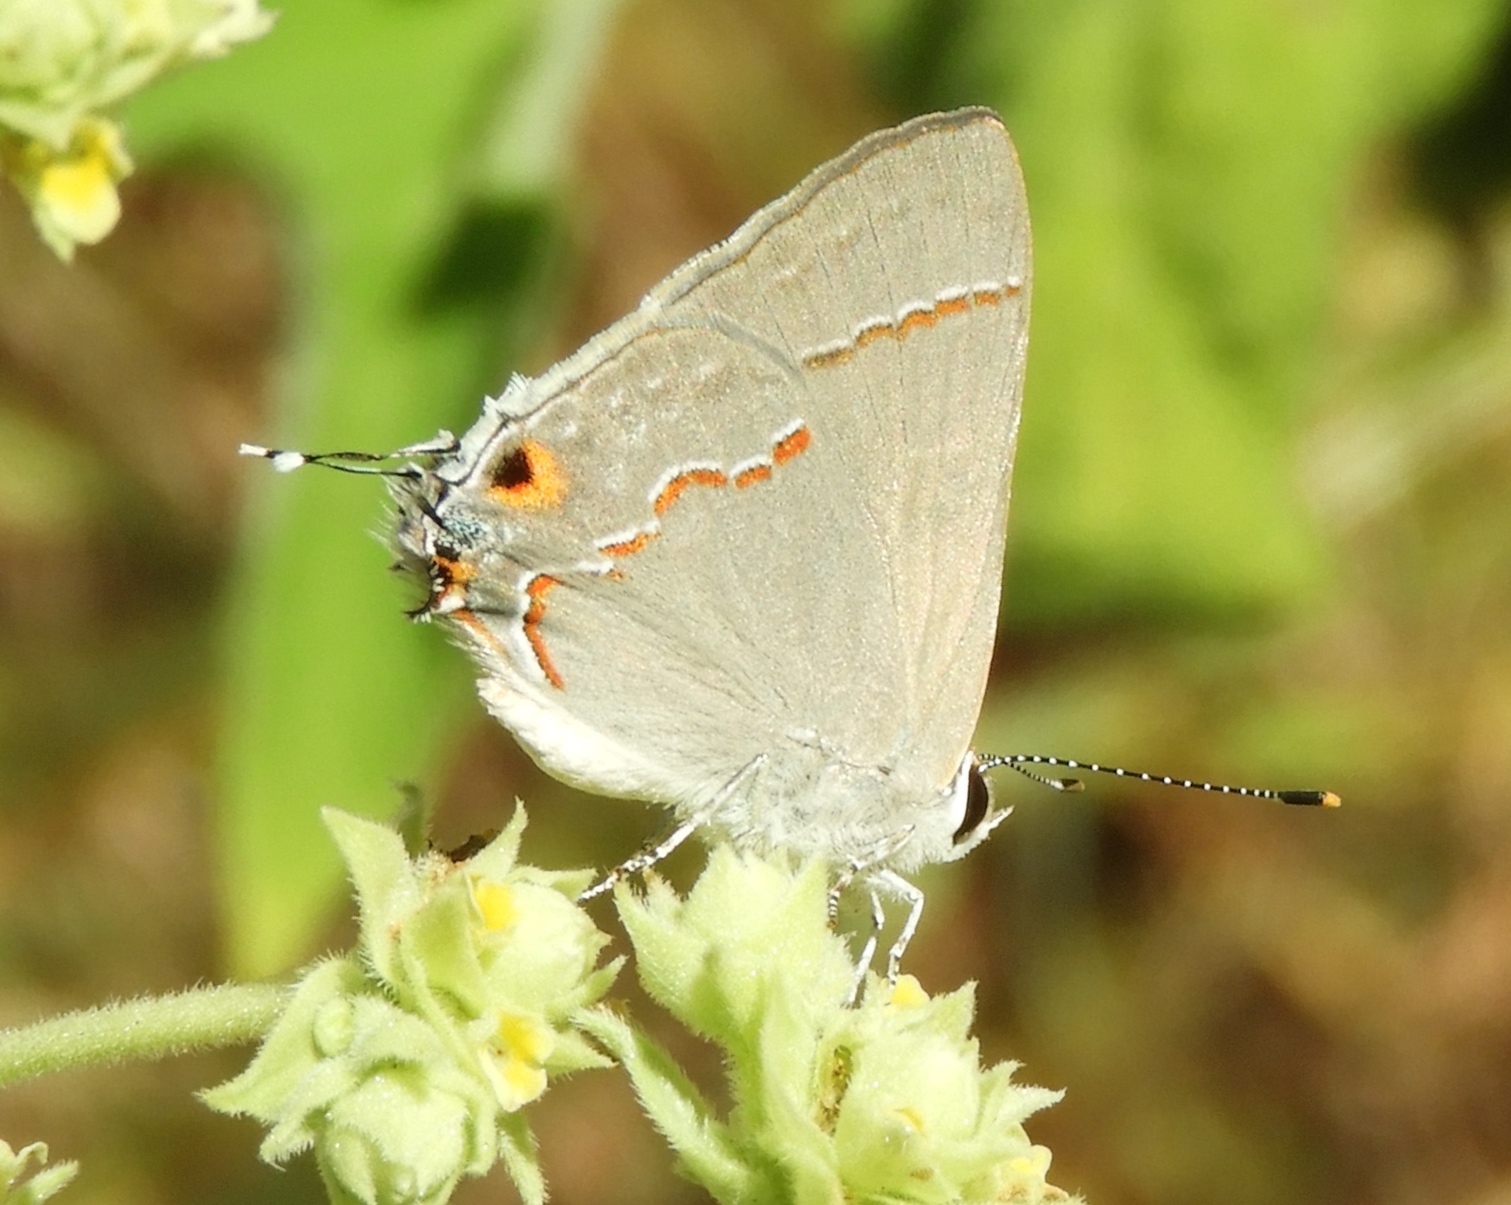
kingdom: Animalia
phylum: Arthropoda
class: Insecta
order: Lepidoptera
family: Lycaenidae
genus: Thecla
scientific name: Thecla bebrycia
